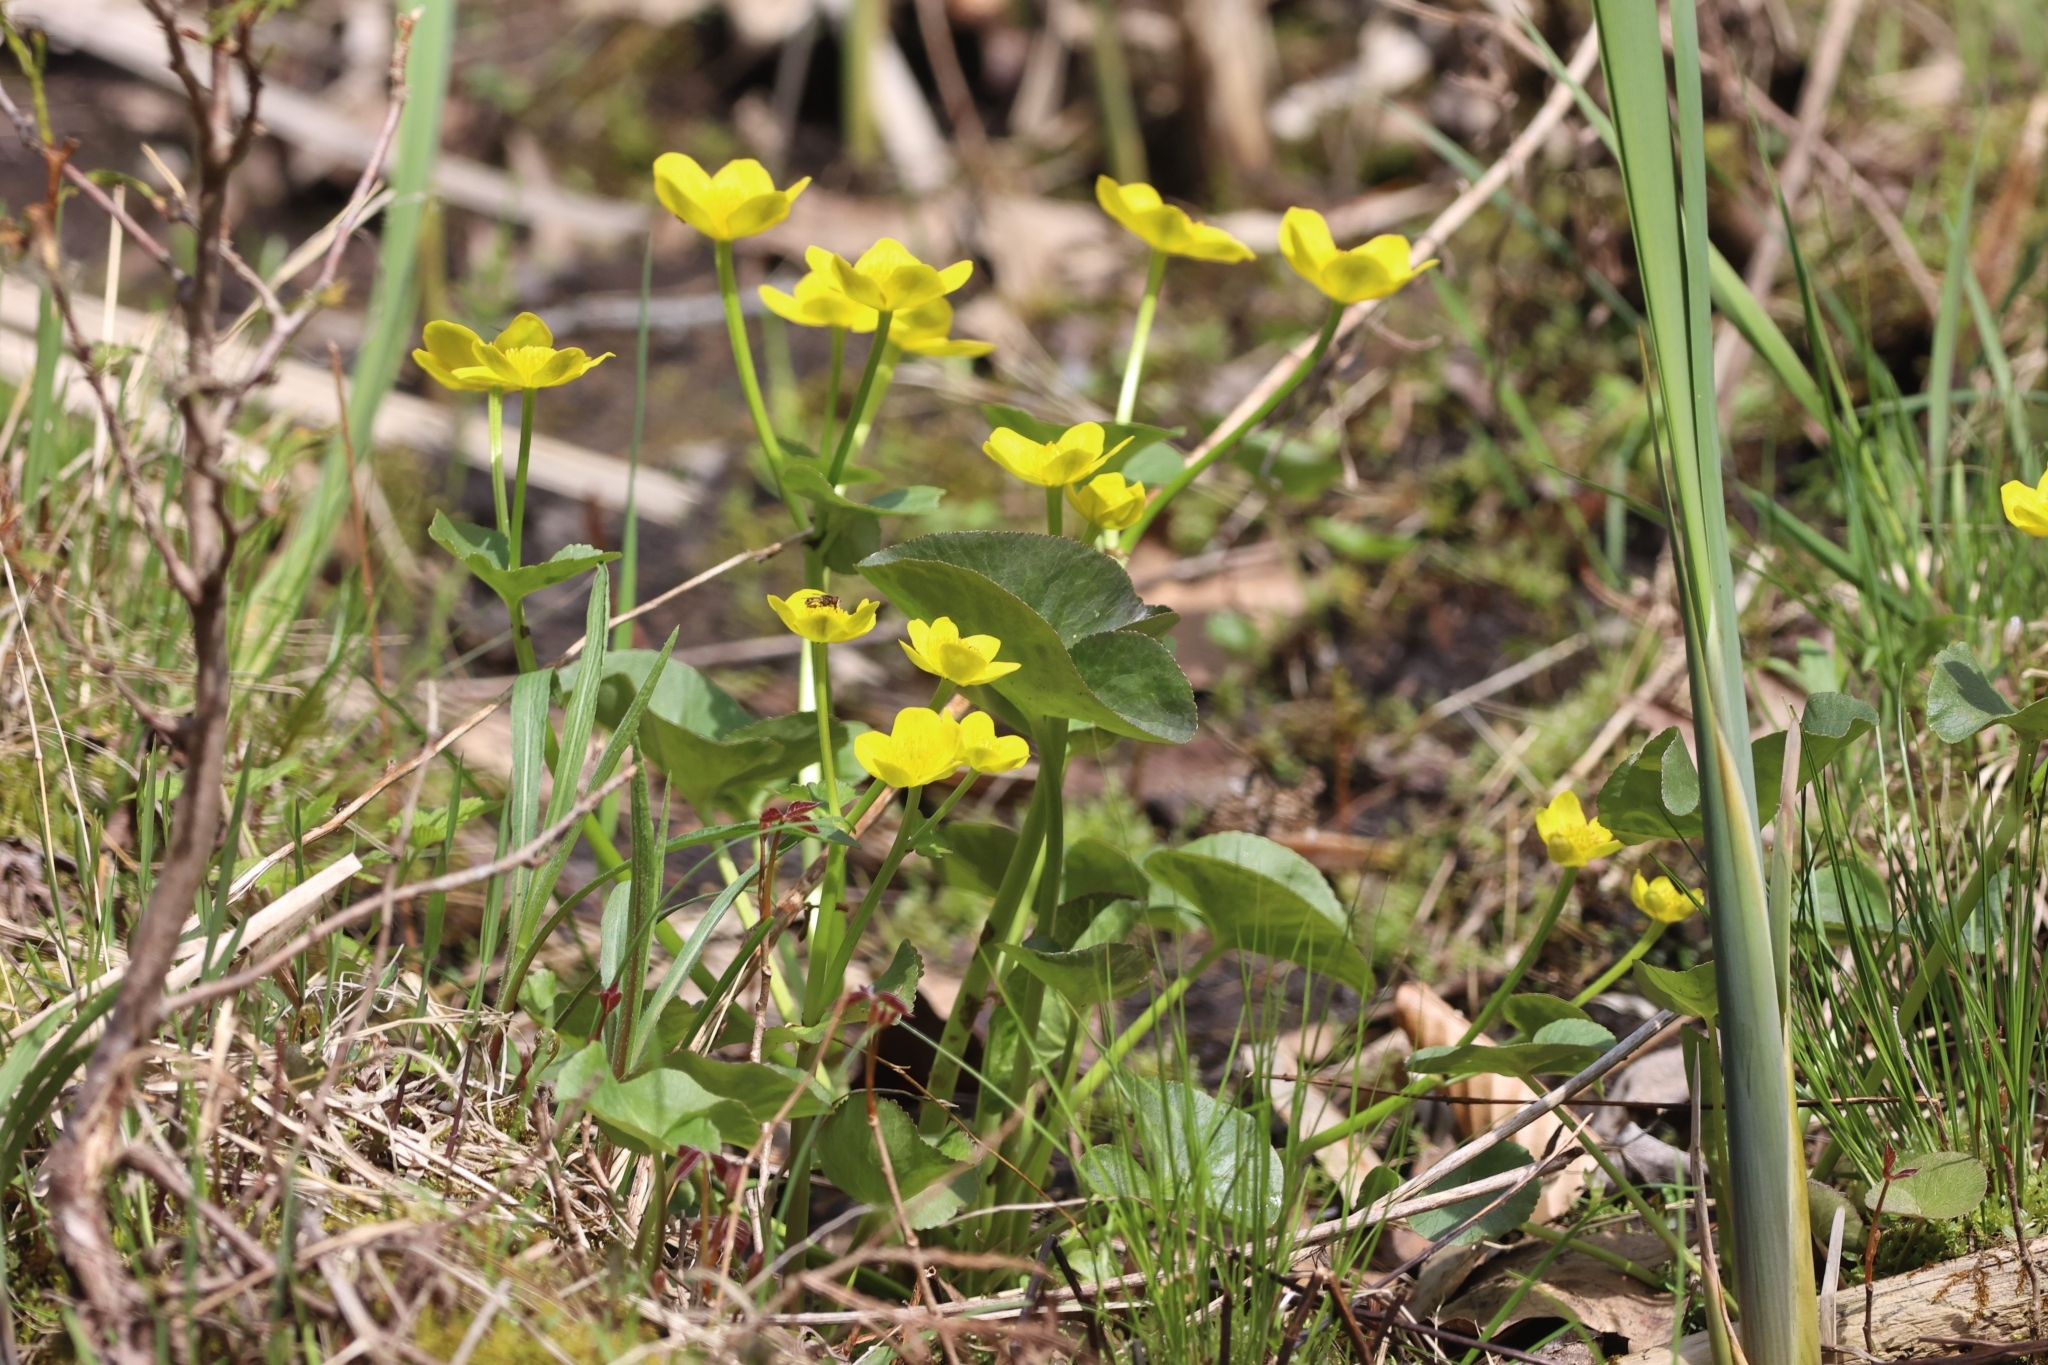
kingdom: Plantae
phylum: Tracheophyta
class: Magnoliopsida
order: Ranunculales
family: Ranunculaceae
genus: Caltha
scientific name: Caltha palustris
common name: Marsh marigold
